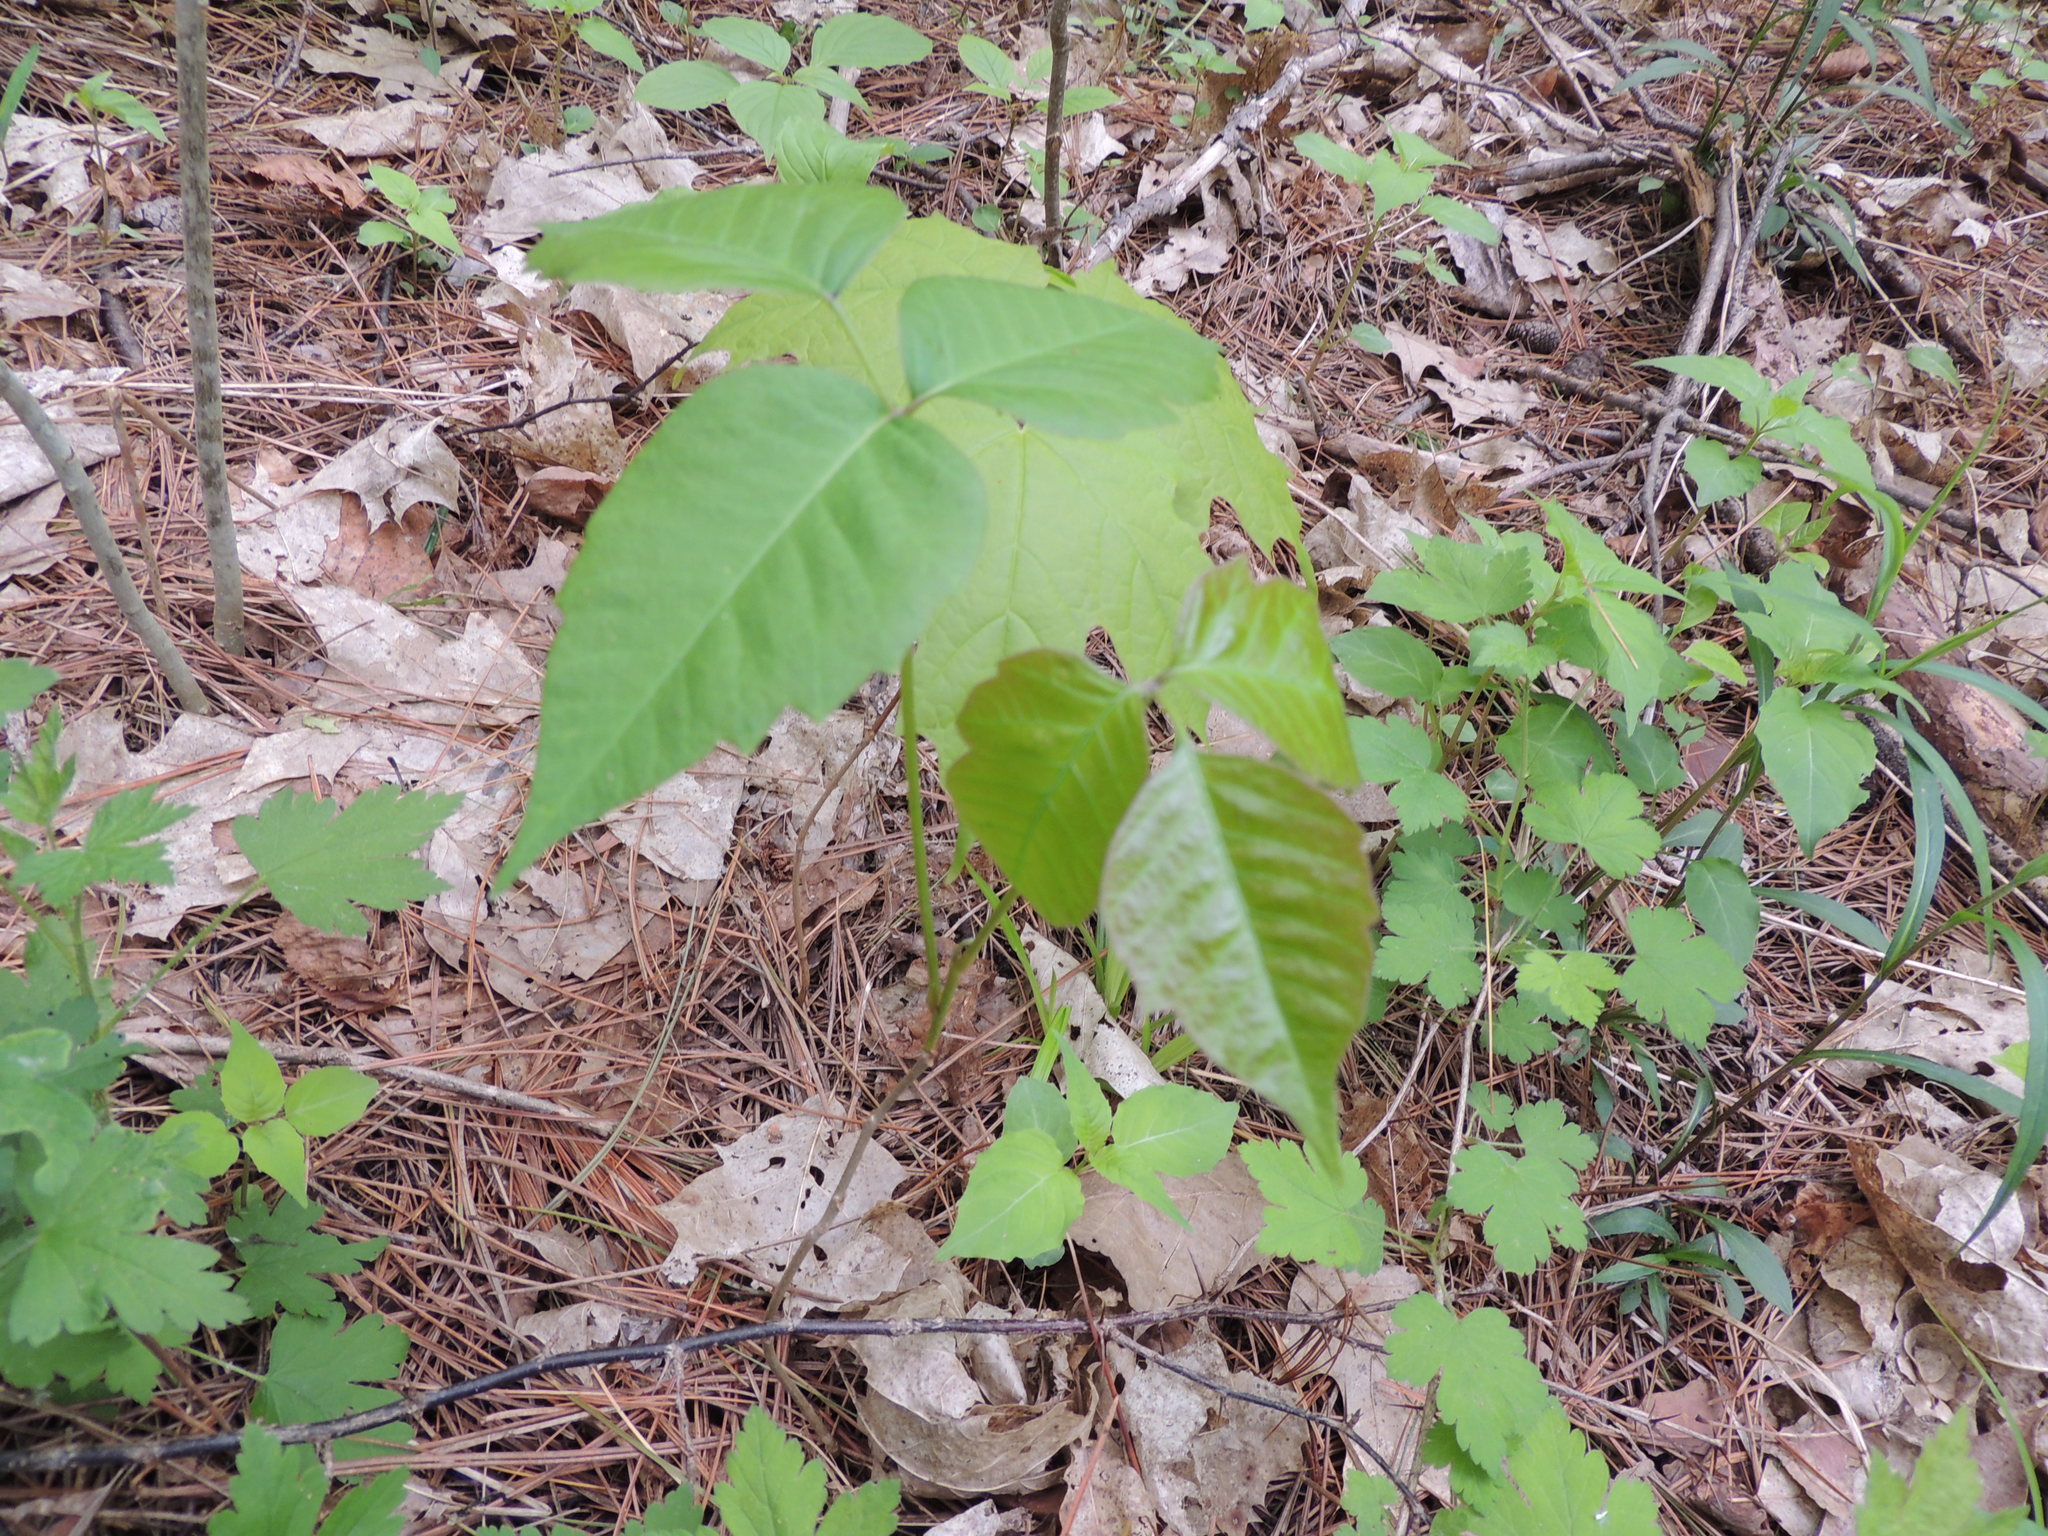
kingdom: Plantae
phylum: Tracheophyta
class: Magnoliopsida
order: Sapindales
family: Anacardiaceae
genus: Toxicodendron
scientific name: Toxicodendron radicans
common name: Poison ivy
